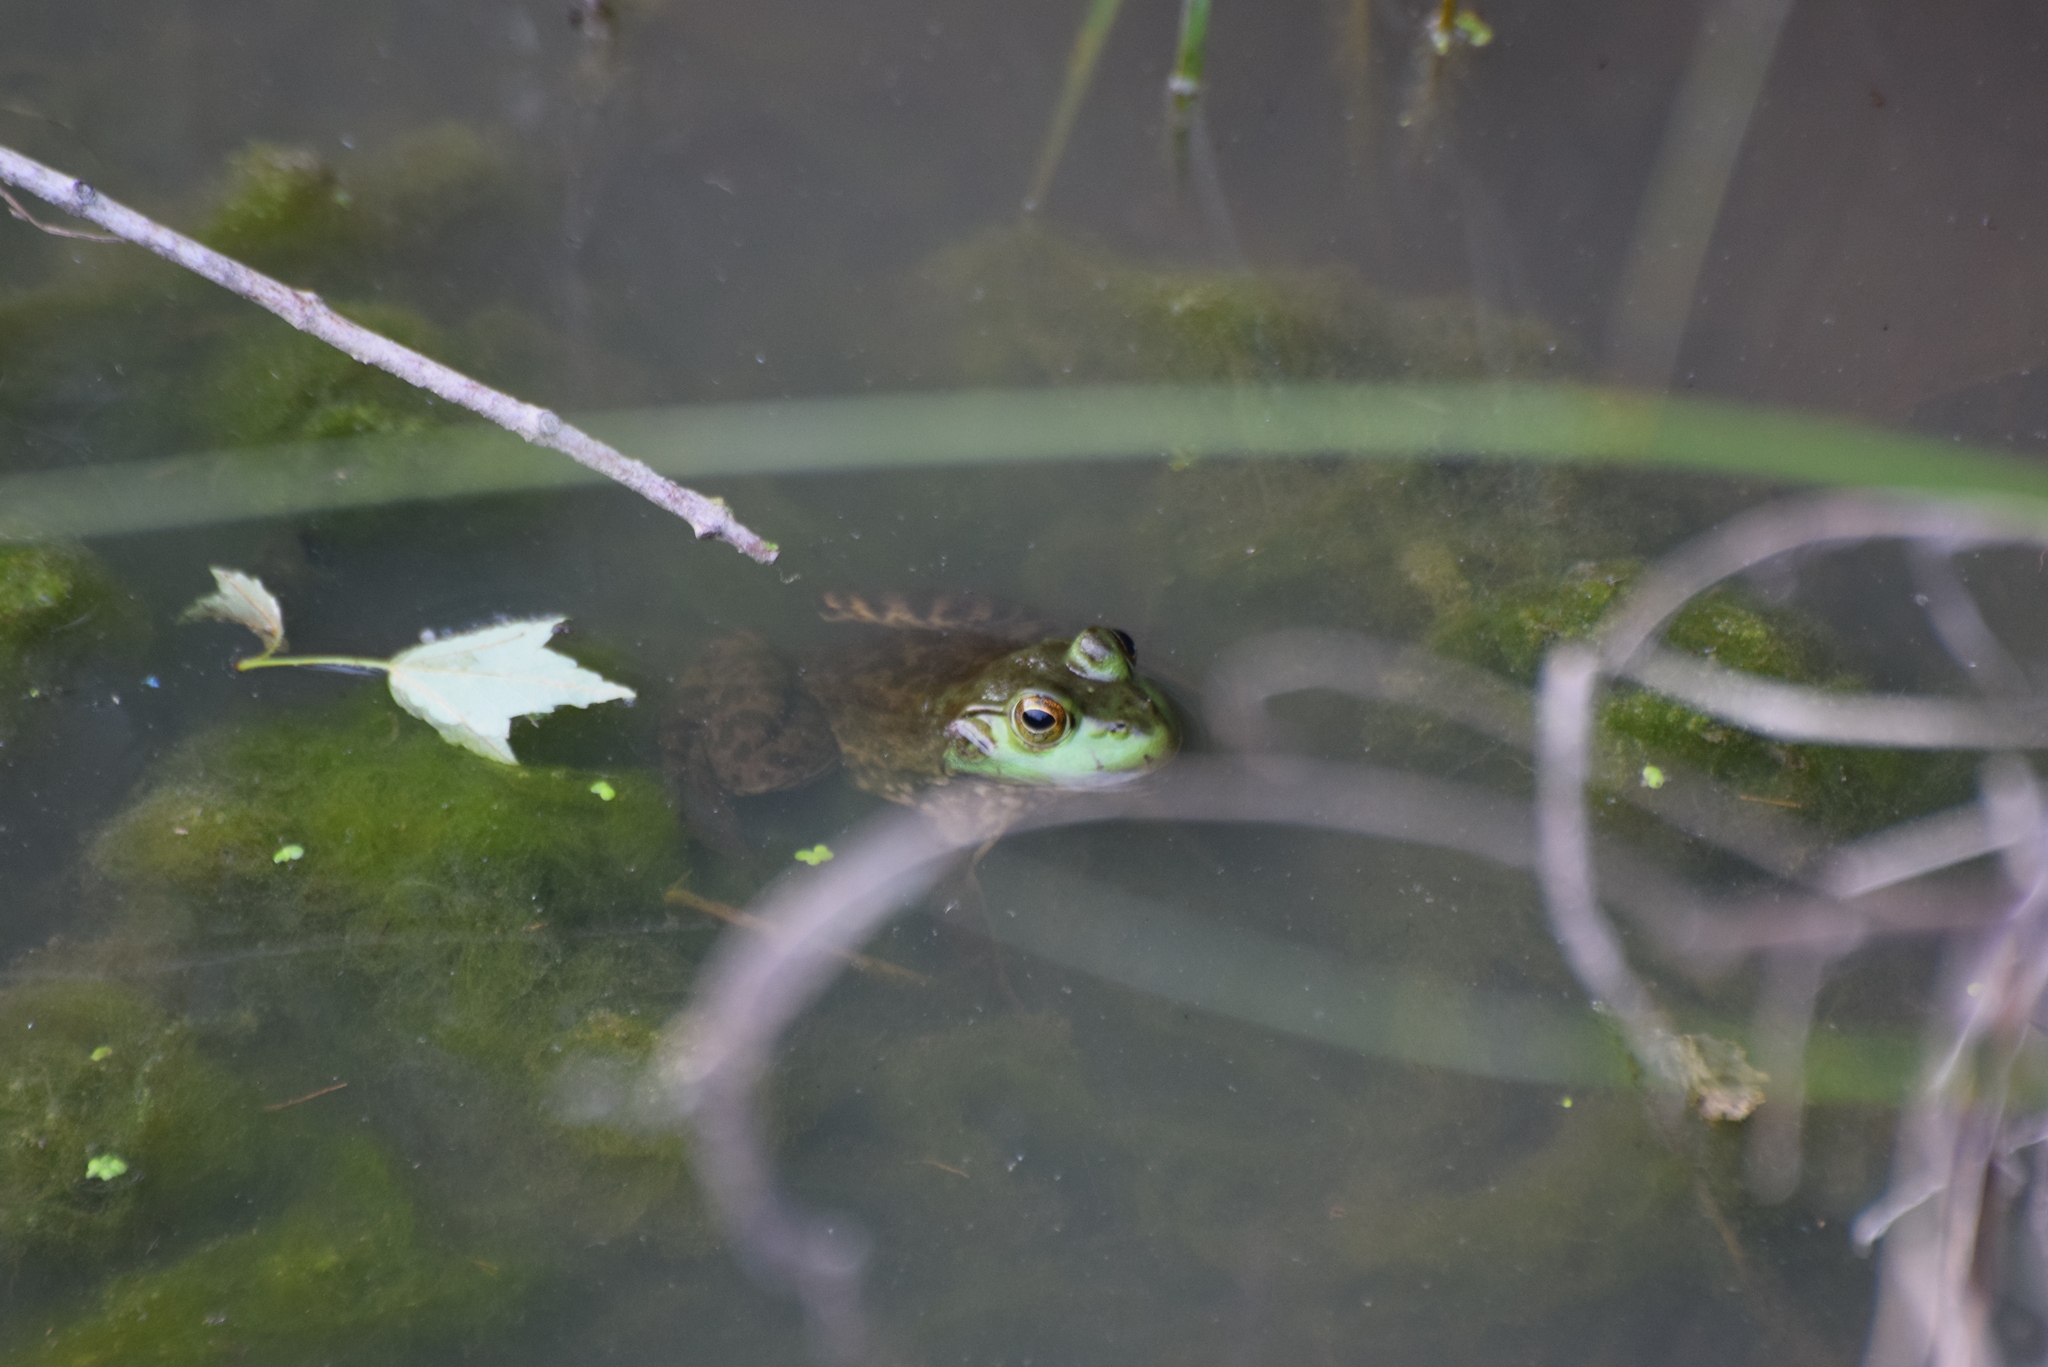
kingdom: Animalia
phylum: Chordata
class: Amphibia
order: Anura
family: Ranidae
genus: Lithobates
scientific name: Lithobates catesbeianus
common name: American bullfrog
